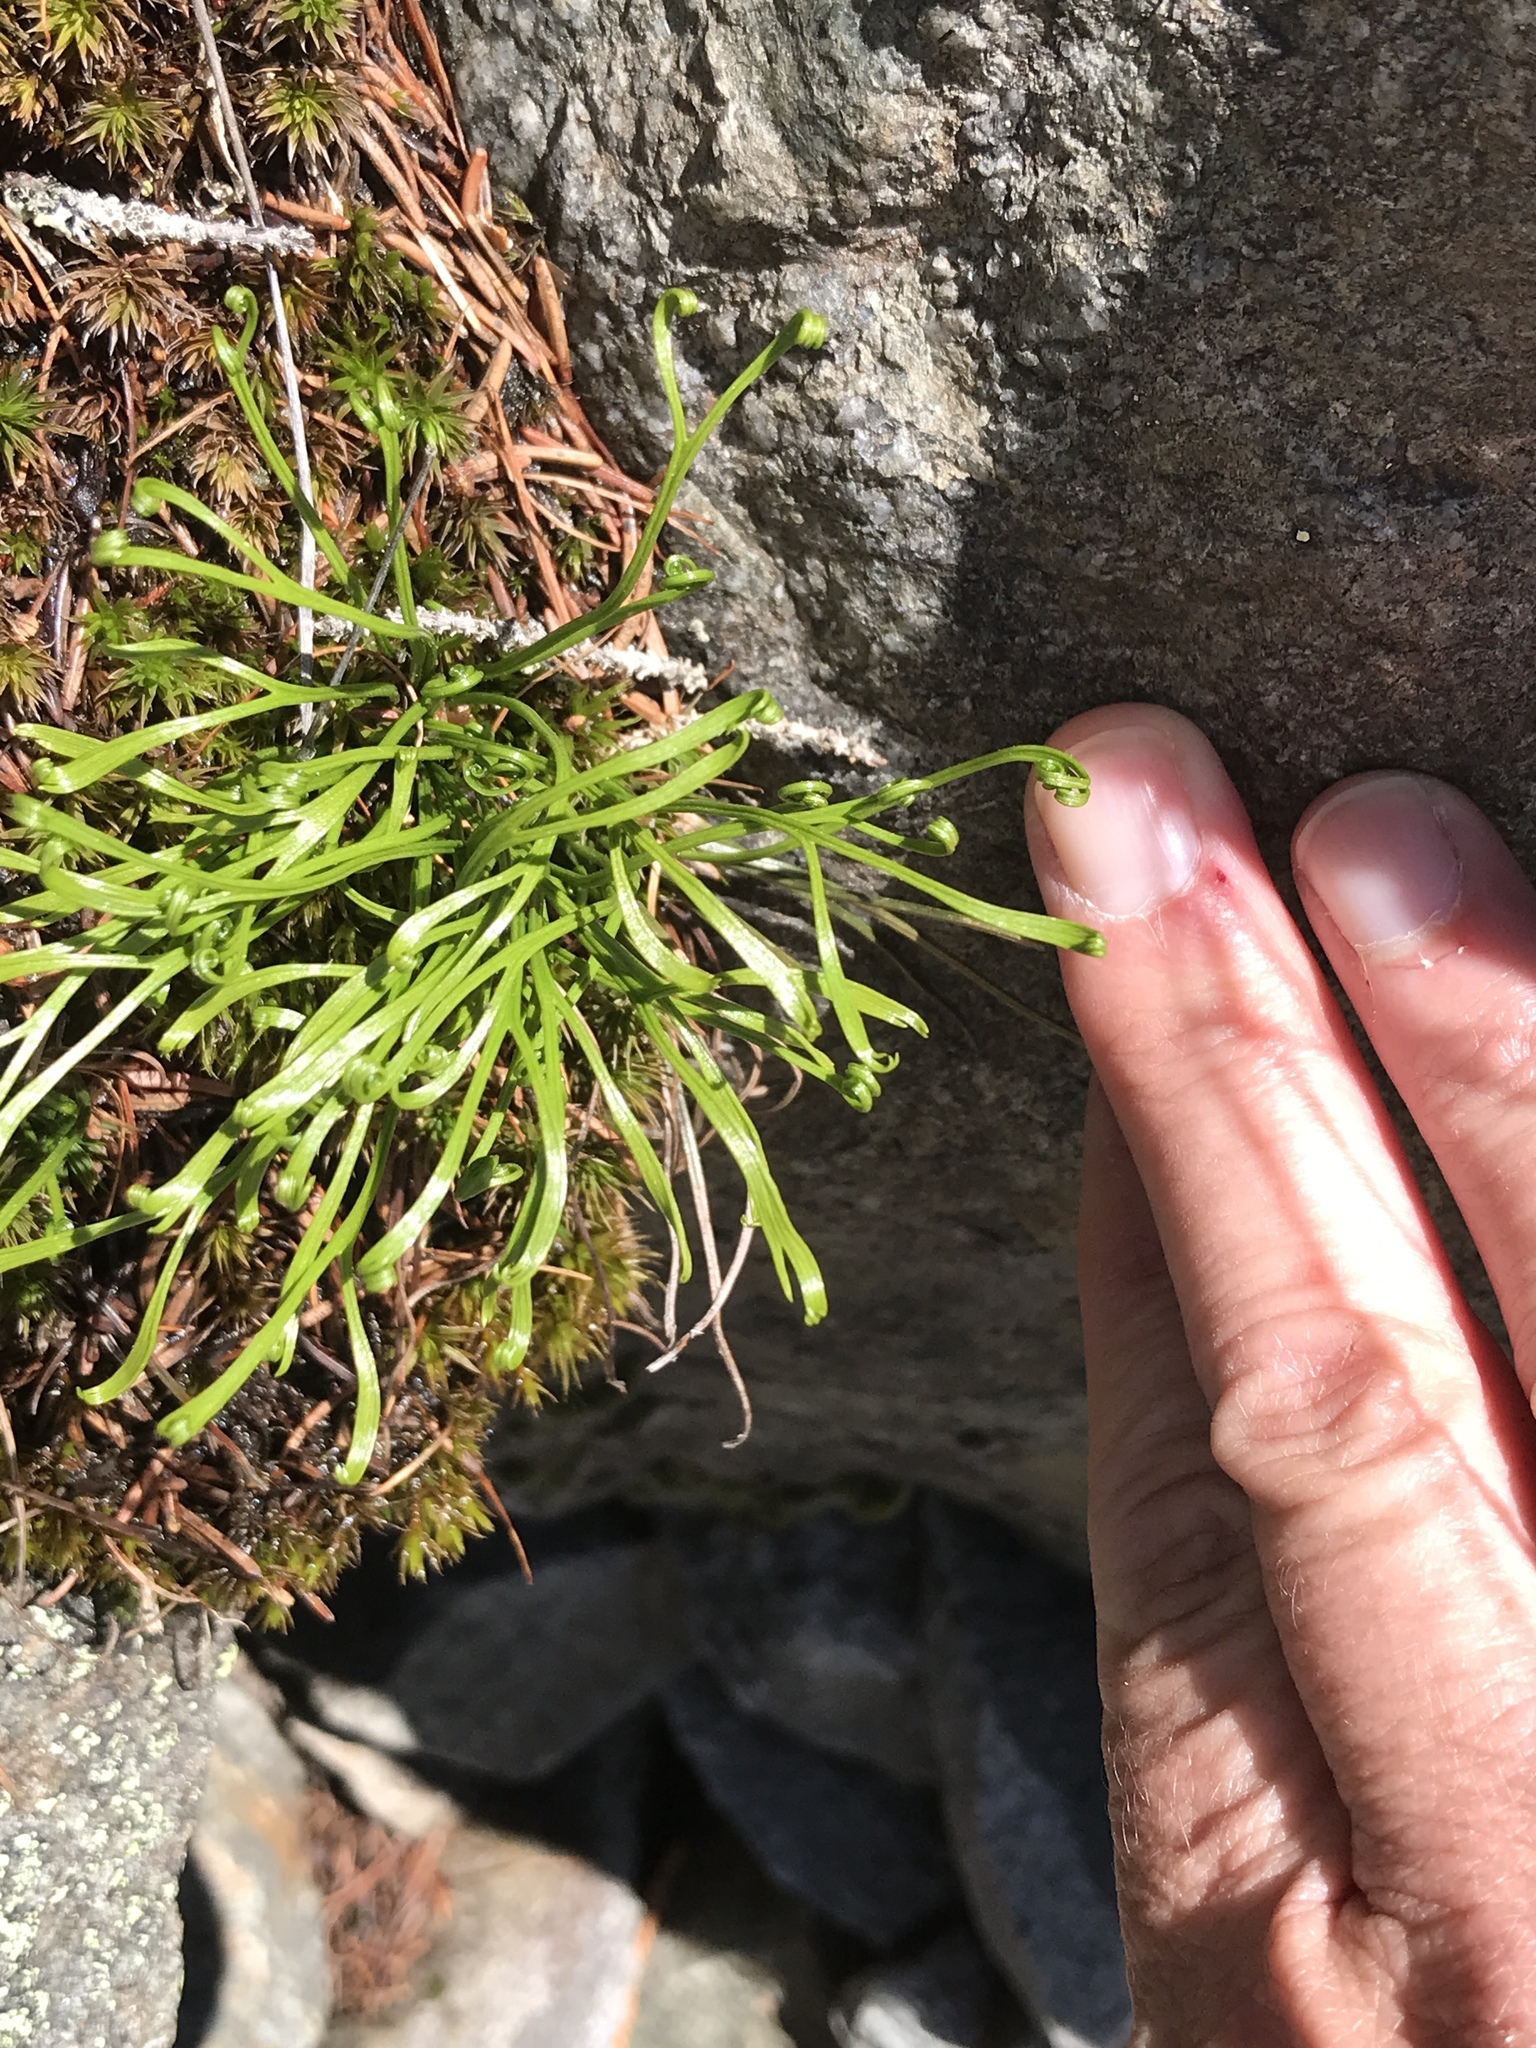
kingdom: Plantae
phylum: Tracheophyta
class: Polypodiopsida
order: Polypodiales
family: Aspleniaceae
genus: Asplenium
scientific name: Asplenium septentrionale
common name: Forked spleenwort
